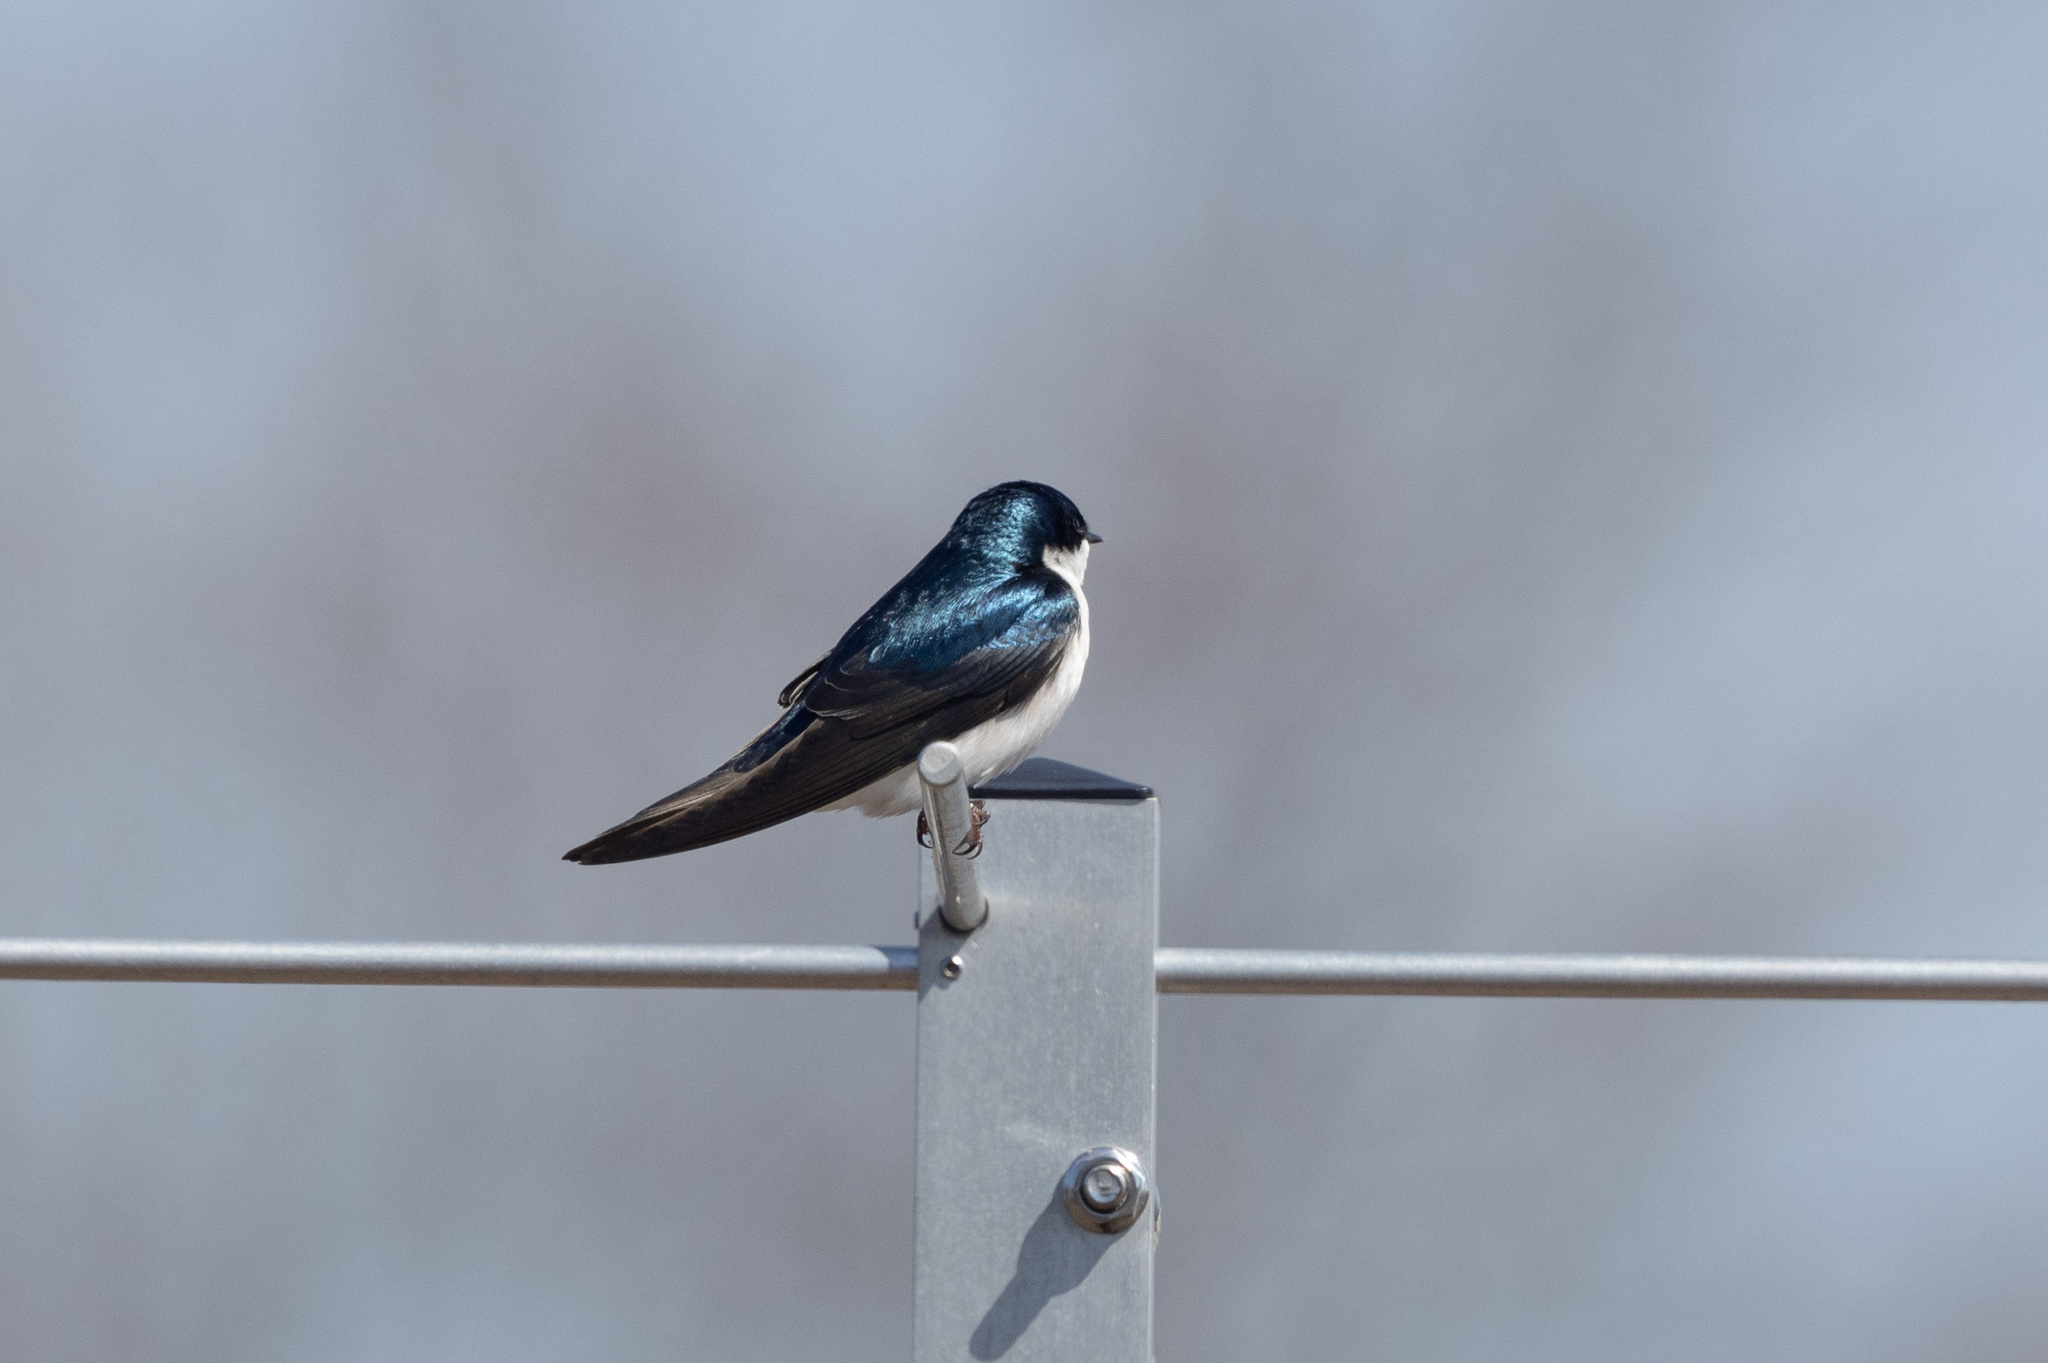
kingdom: Animalia
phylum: Chordata
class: Aves
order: Passeriformes
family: Hirundinidae
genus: Tachycineta
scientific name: Tachycineta bicolor
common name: Tree swallow
